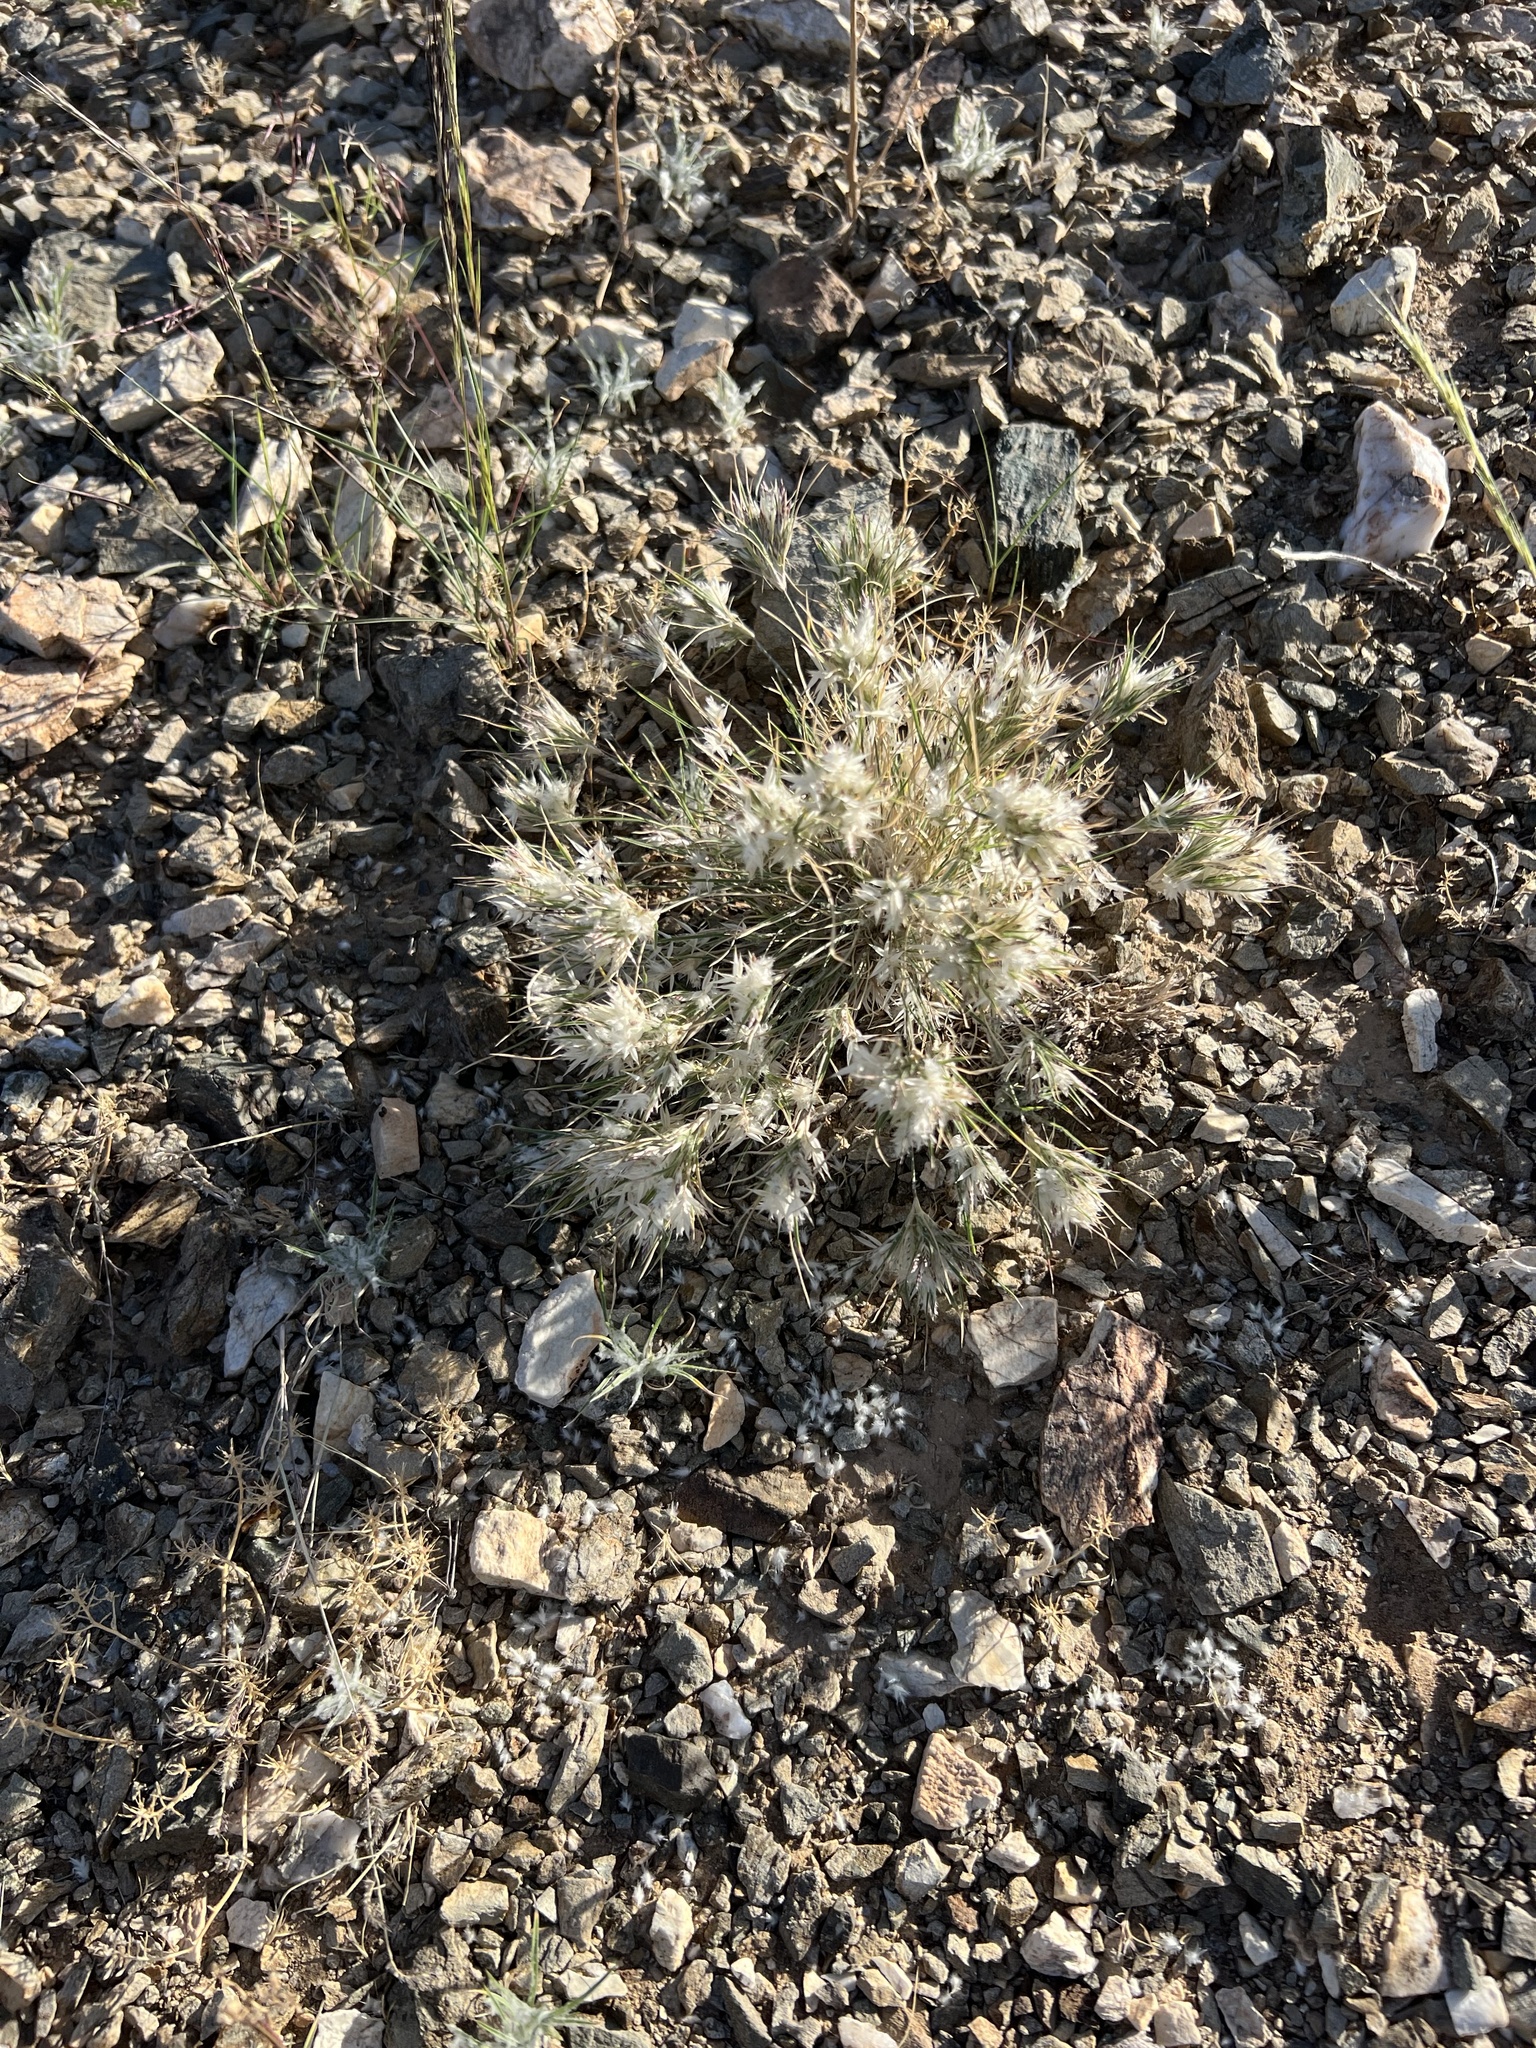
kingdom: Plantae
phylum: Tracheophyta
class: Liliopsida
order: Poales
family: Poaceae
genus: Dasyochloa
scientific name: Dasyochloa pulchella
